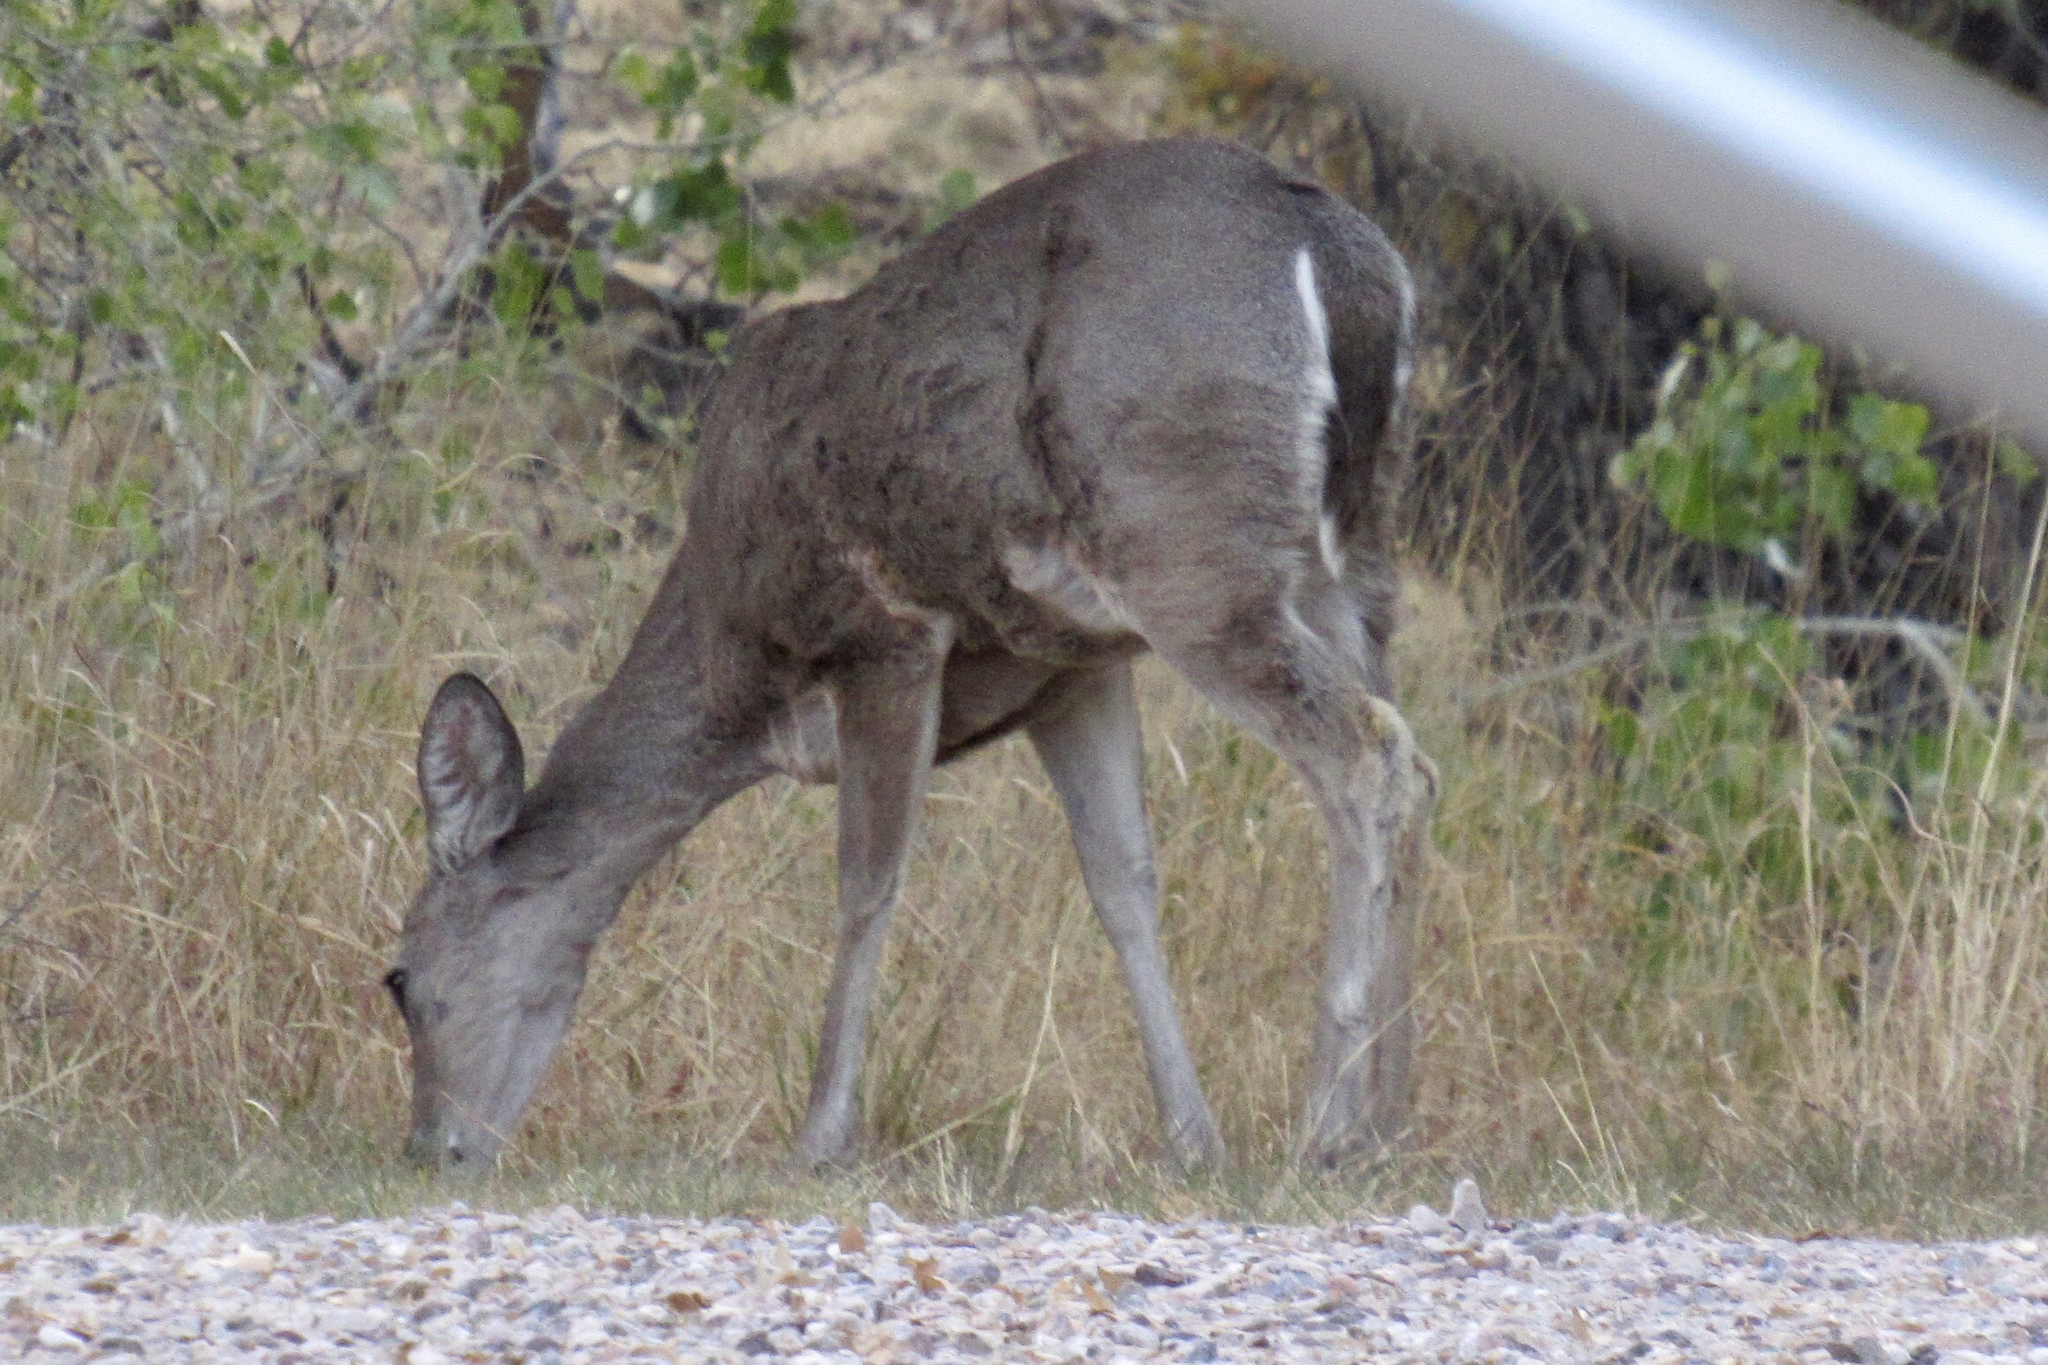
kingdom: Animalia
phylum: Chordata
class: Mammalia
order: Artiodactyla
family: Cervidae
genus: Odocoileus
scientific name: Odocoileus virginianus
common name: White-tailed deer
